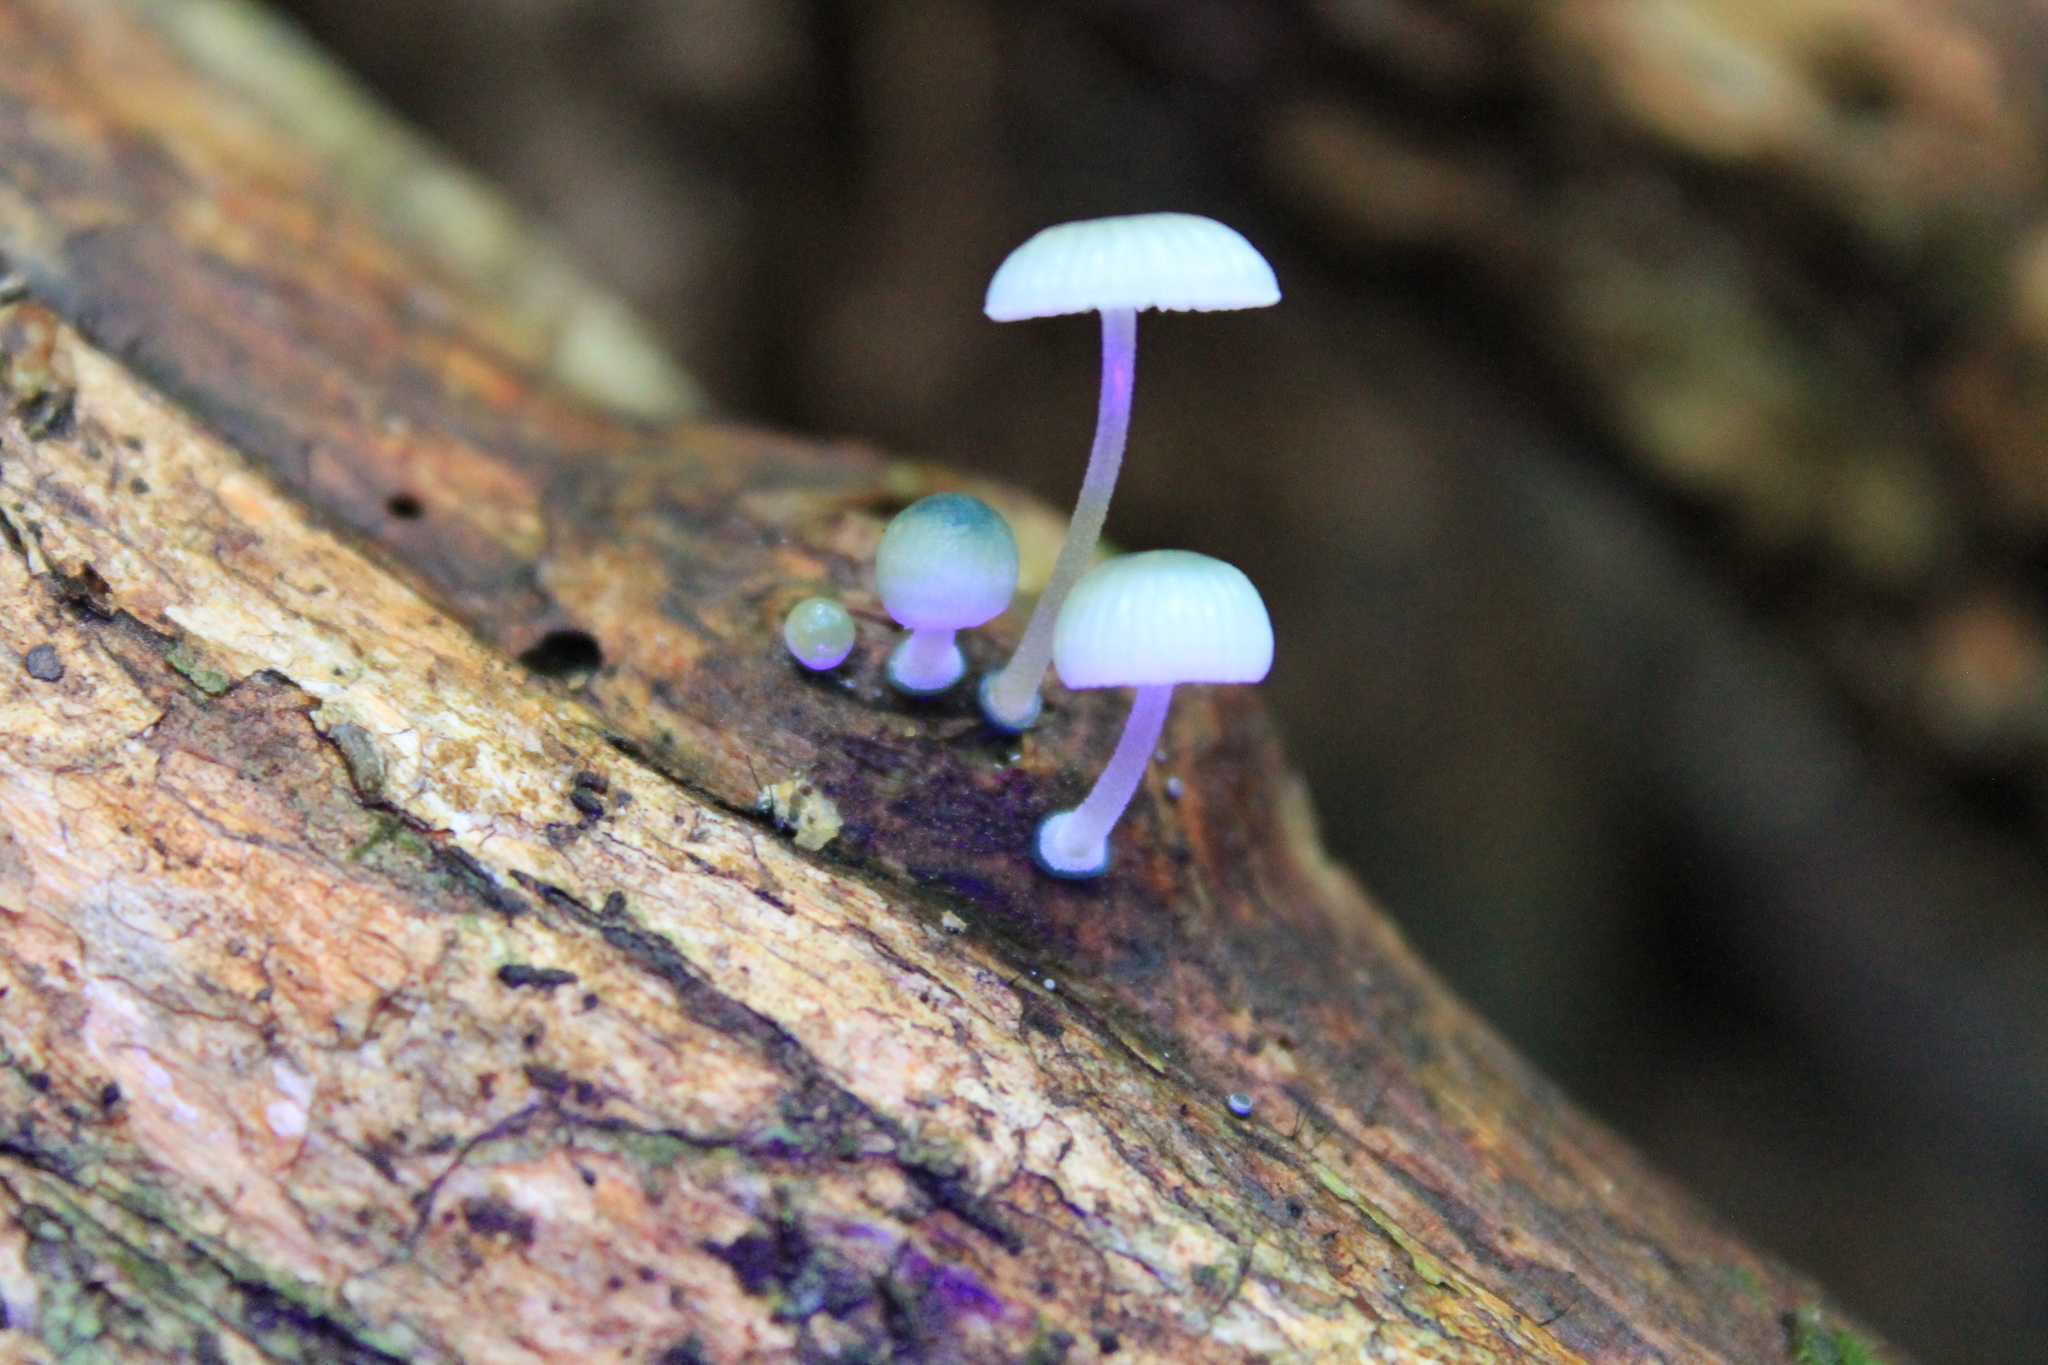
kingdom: Fungi
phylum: Basidiomycota
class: Agaricomycetes
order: Agaricales
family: Mycenaceae
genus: Mycena
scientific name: Mycena interrupta
